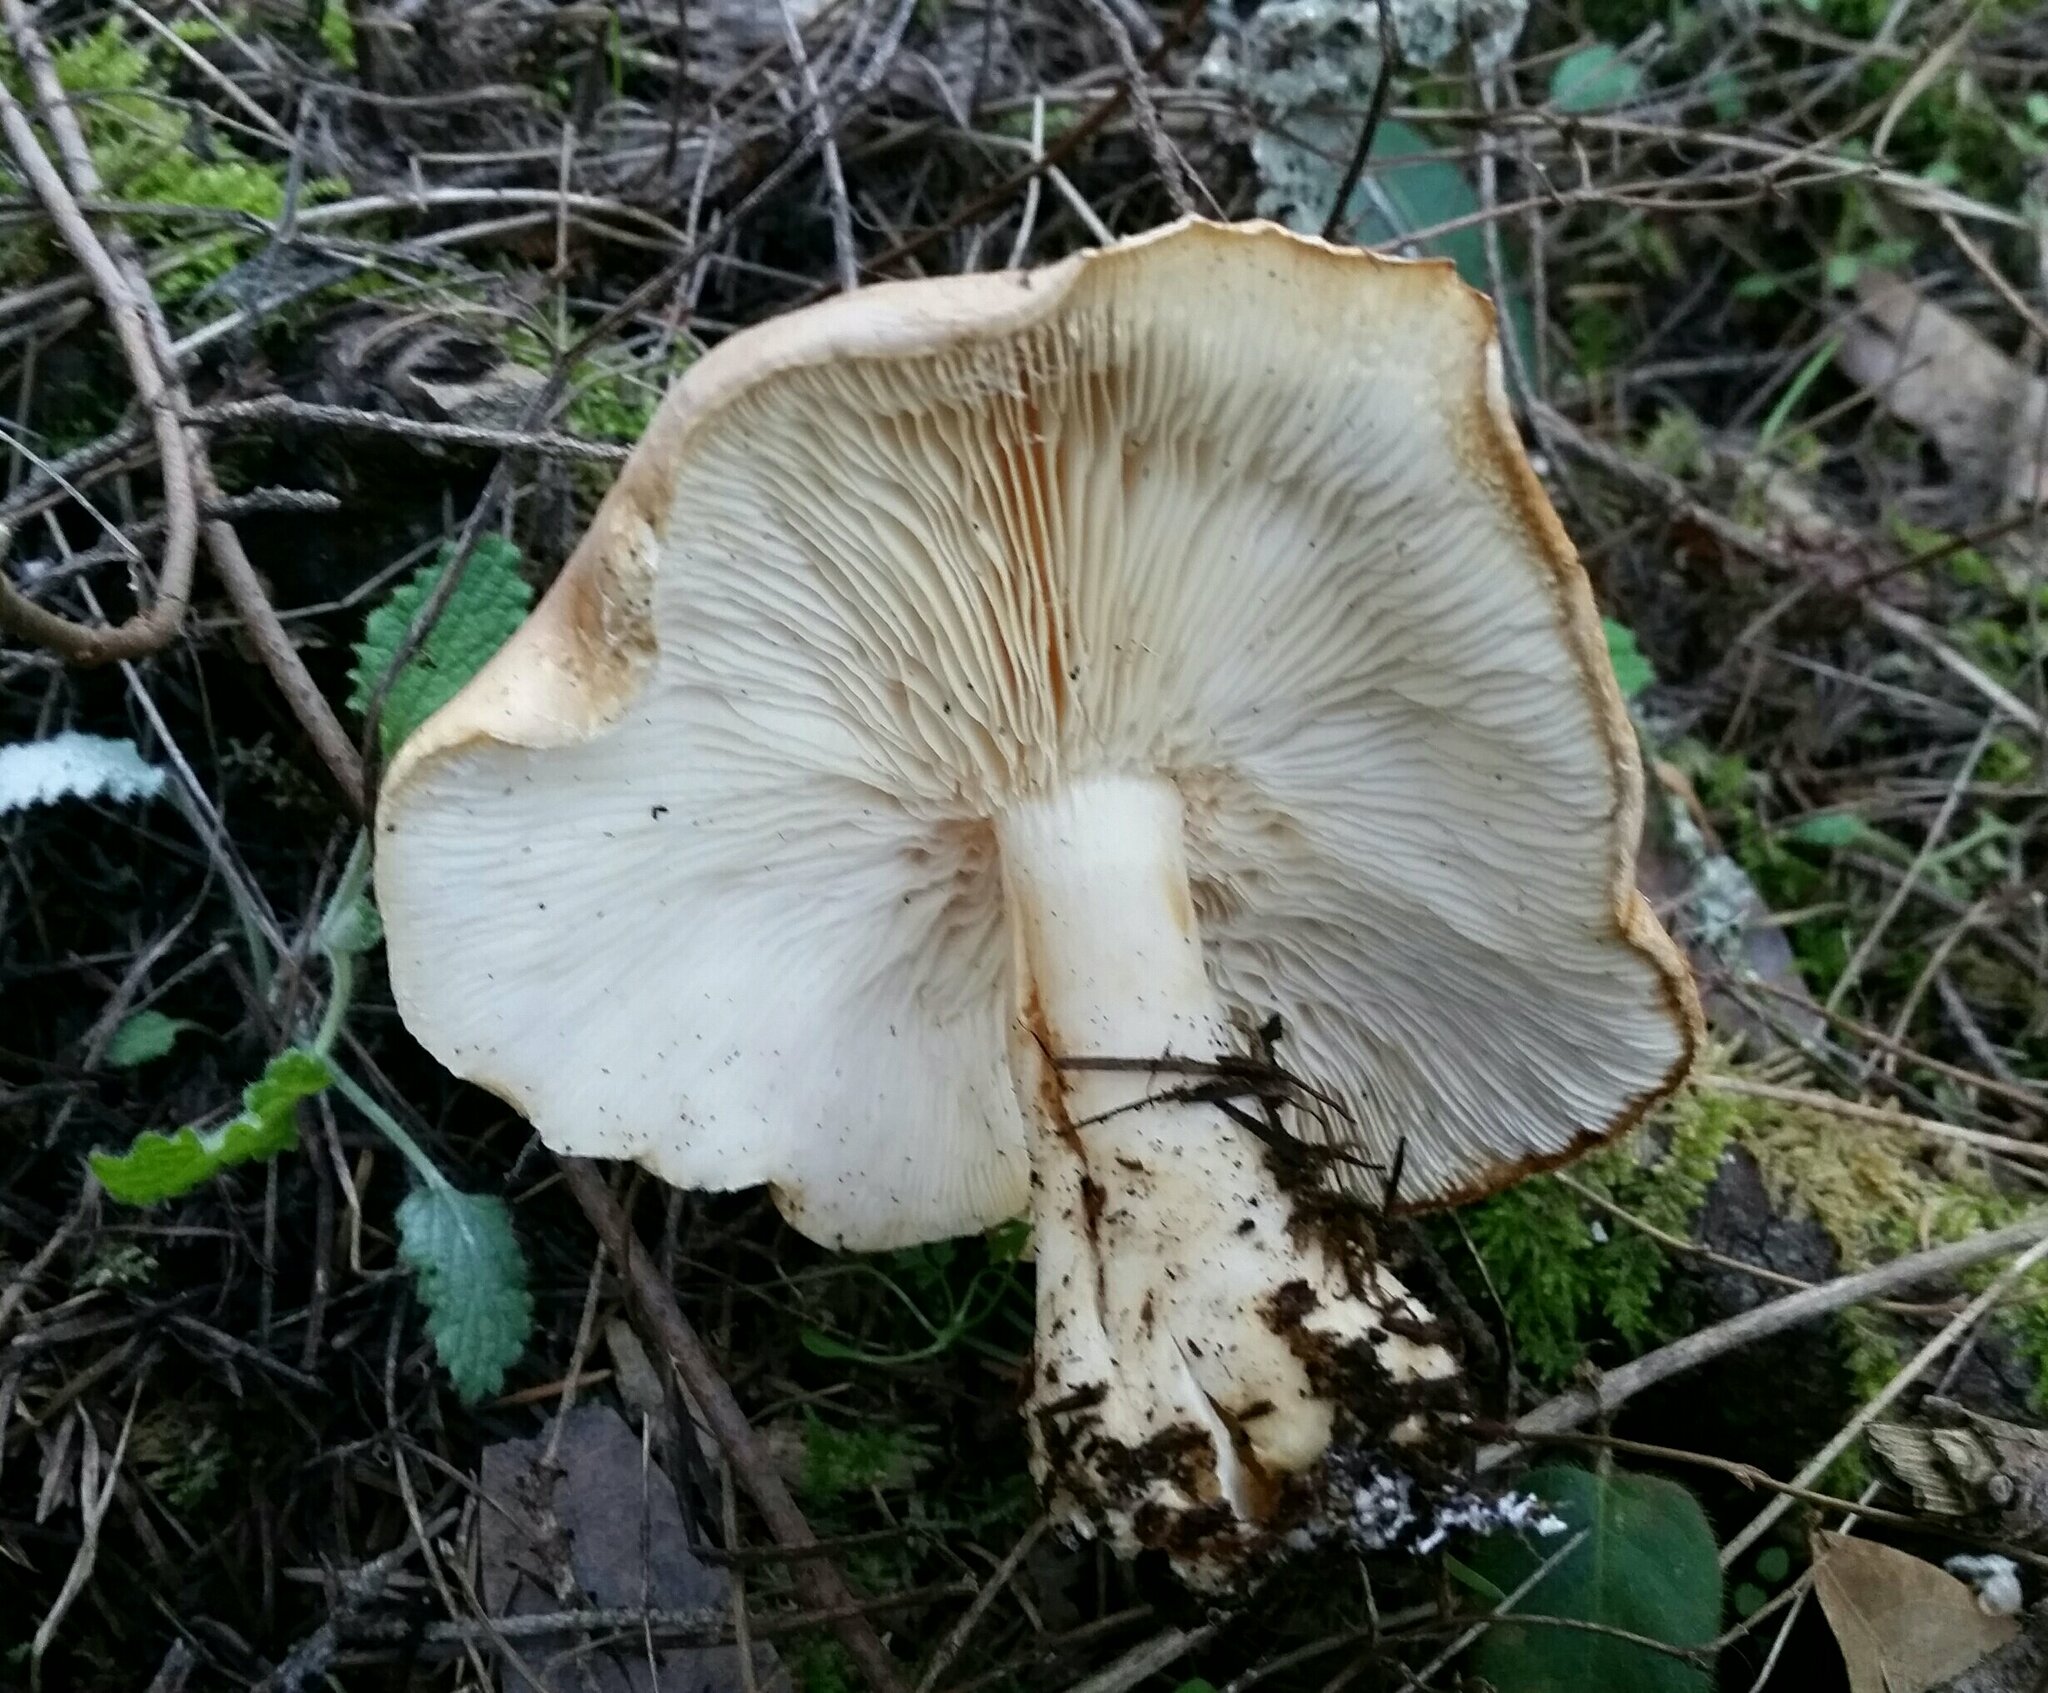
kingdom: Fungi
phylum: Basidiomycota
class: Agaricomycetes
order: Agaricales
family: Tricholomataceae
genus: Leucopaxillus
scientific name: Leucopaxillus gentianeus
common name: Bitter funnel
